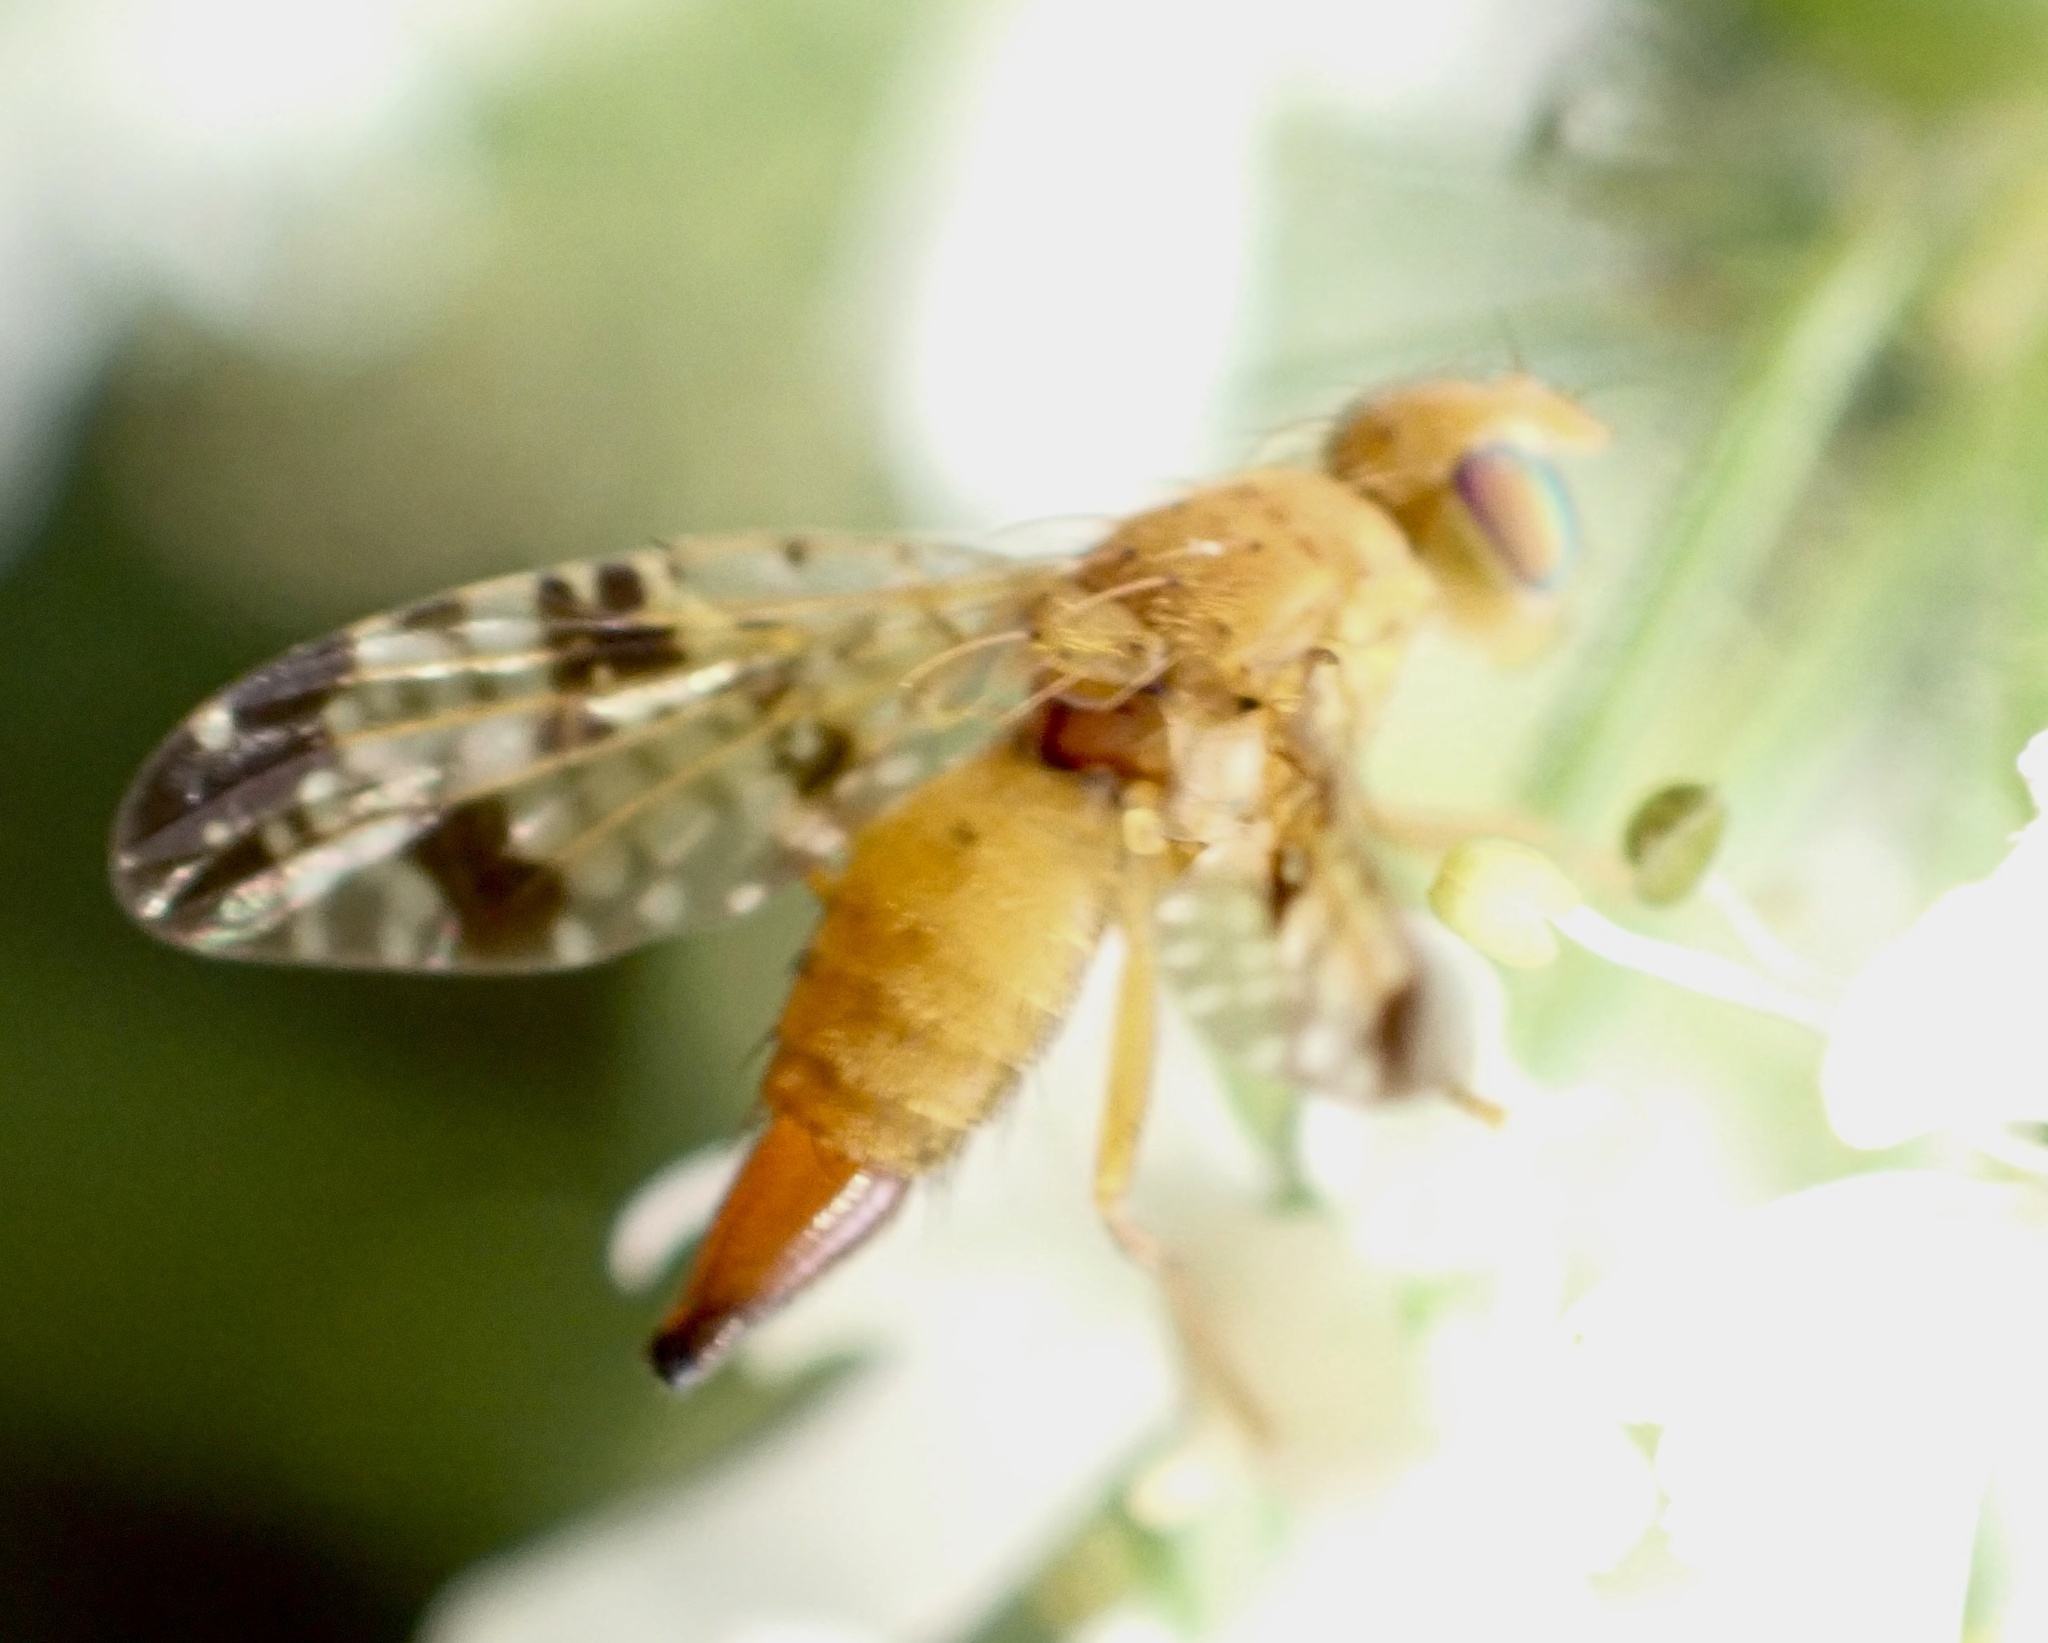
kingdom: Animalia
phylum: Arthropoda
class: Insecta
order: Diptera
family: Tephritidae
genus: Xyphosia
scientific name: Xyphosia miliaria
